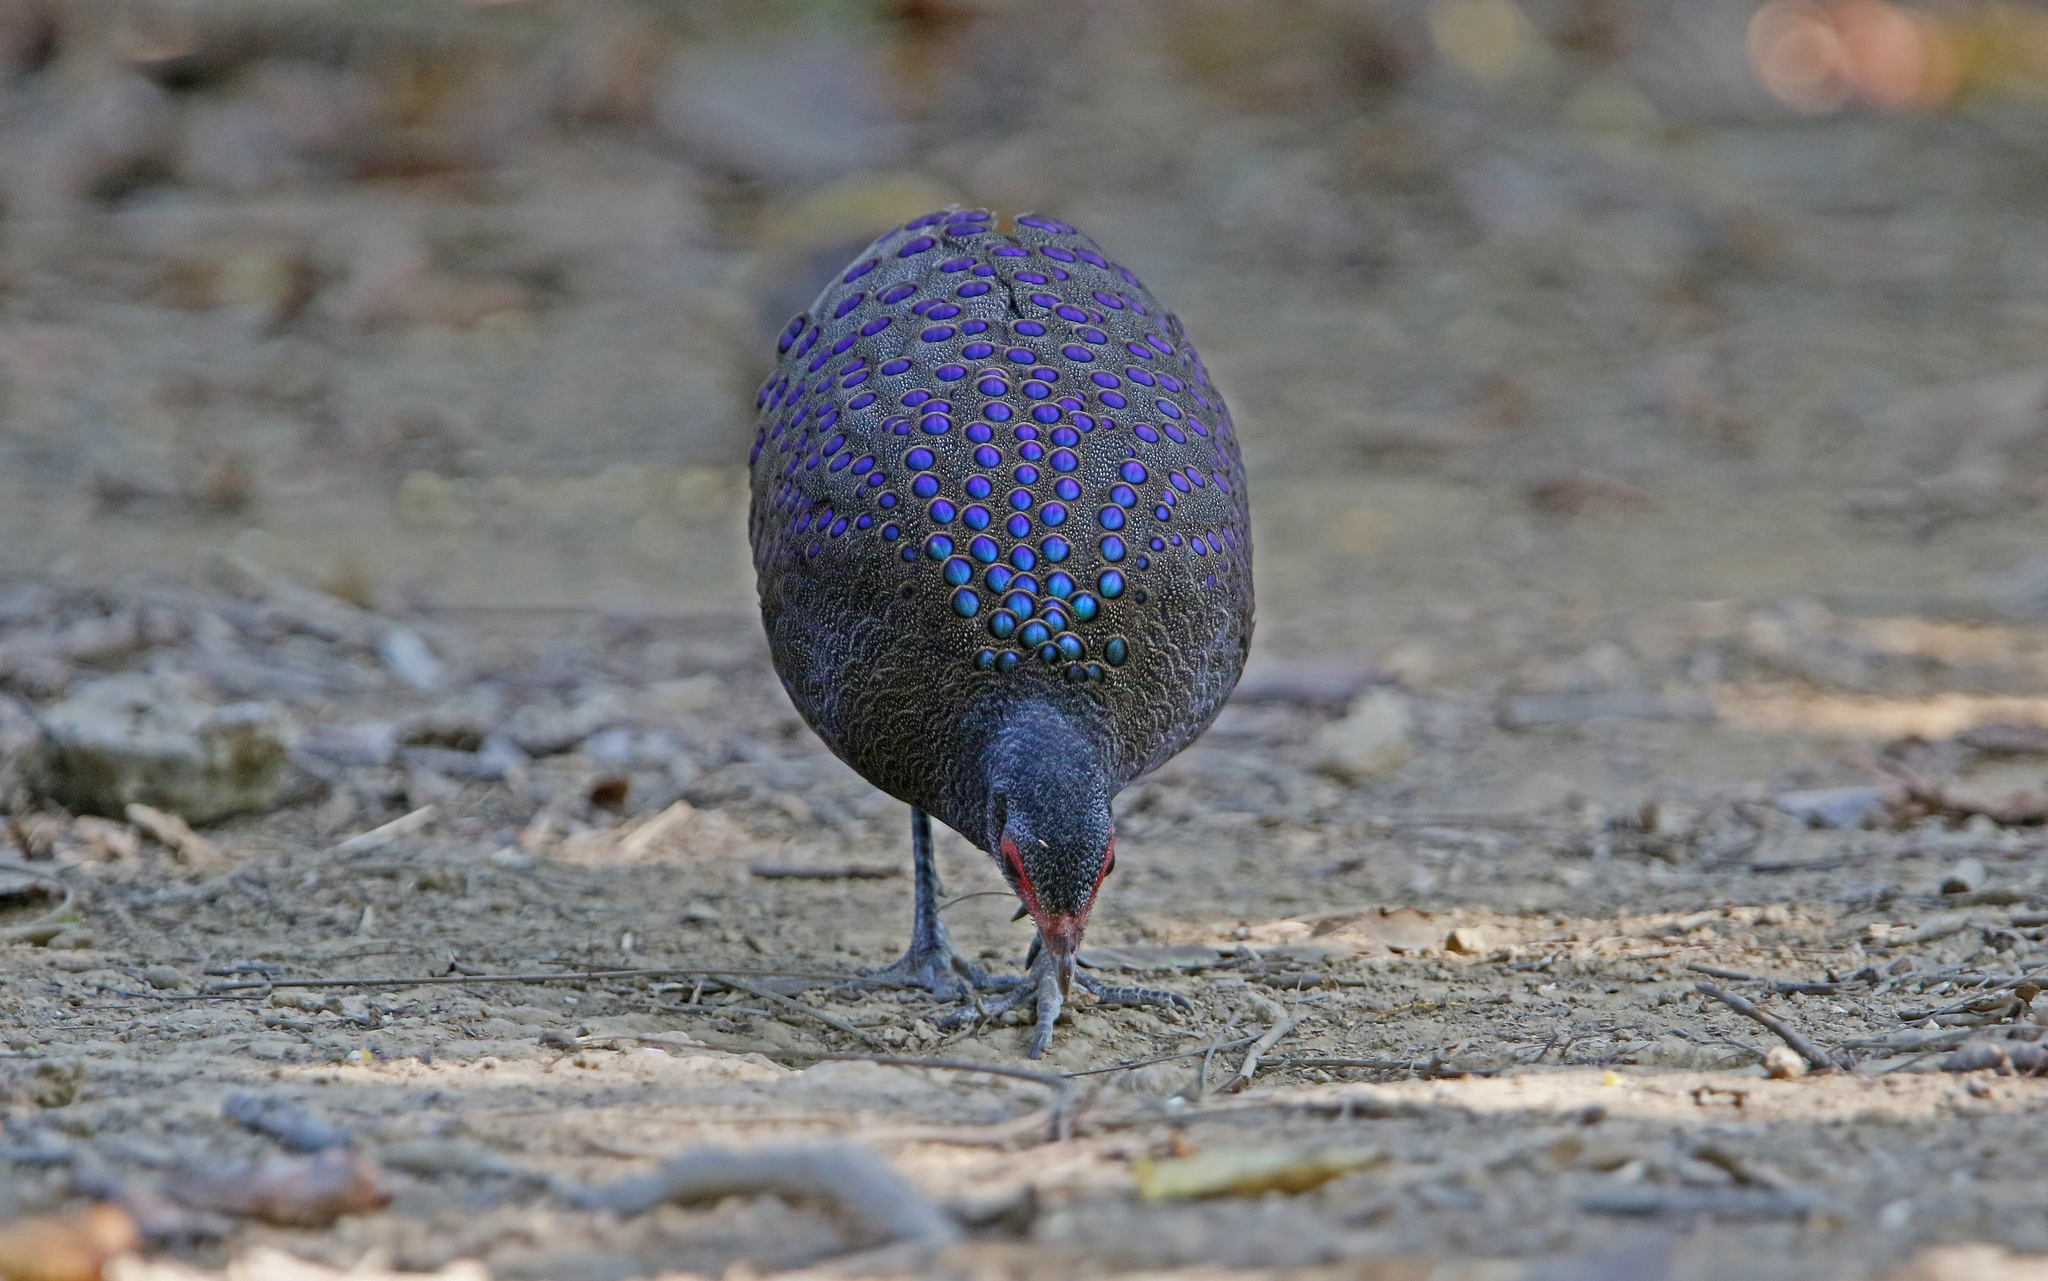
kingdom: Animalia
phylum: Chordata
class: Aves
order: Galliformes
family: Phasianidae
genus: Polyplectron
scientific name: Polyplectron germaini
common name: Germain's peacock-pheasant
